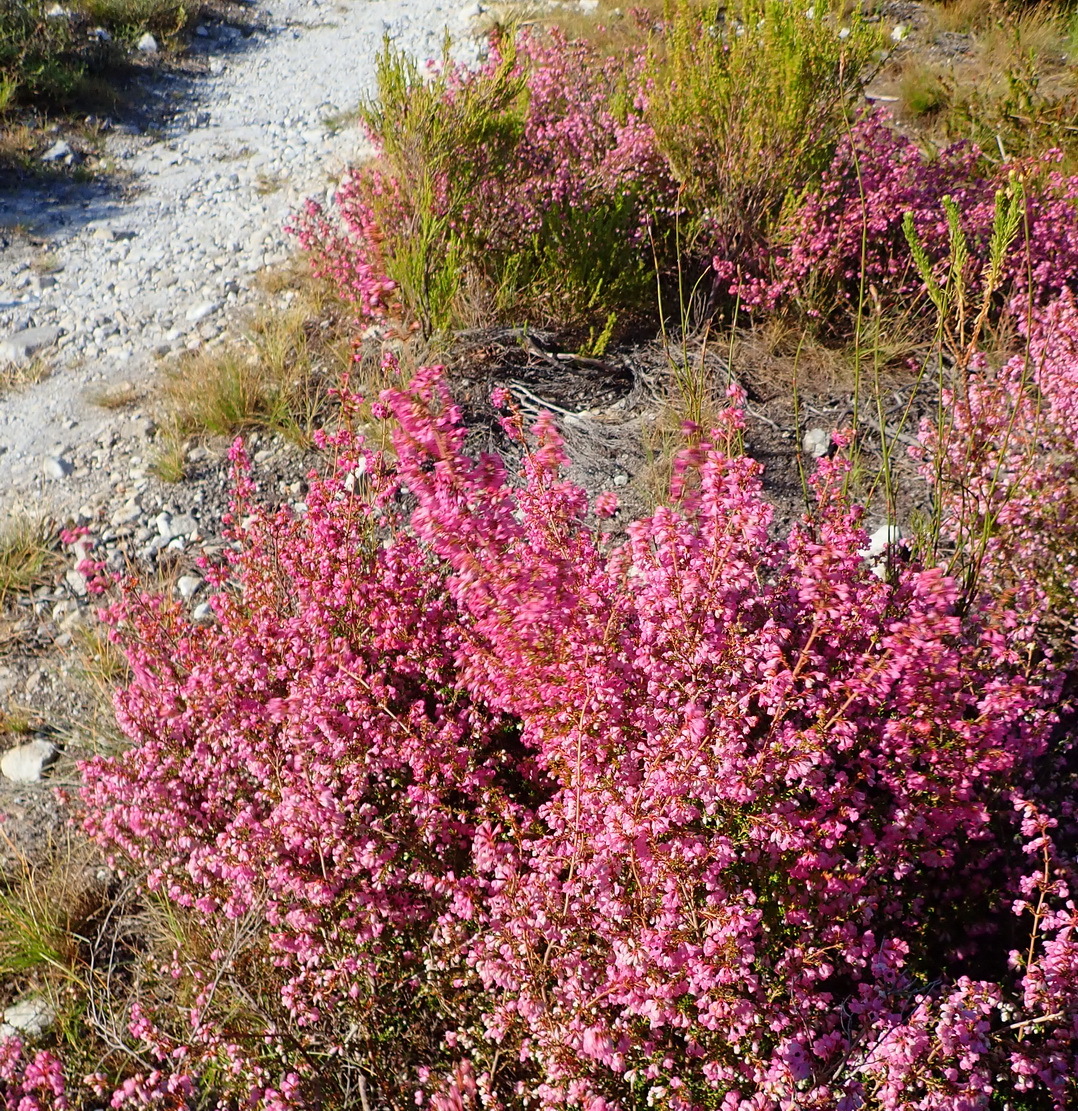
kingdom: Plantae
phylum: Tracheophyta
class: Magnoliopsida
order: Ericales
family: Ericaceae
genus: Erica
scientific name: Erica melanthera
